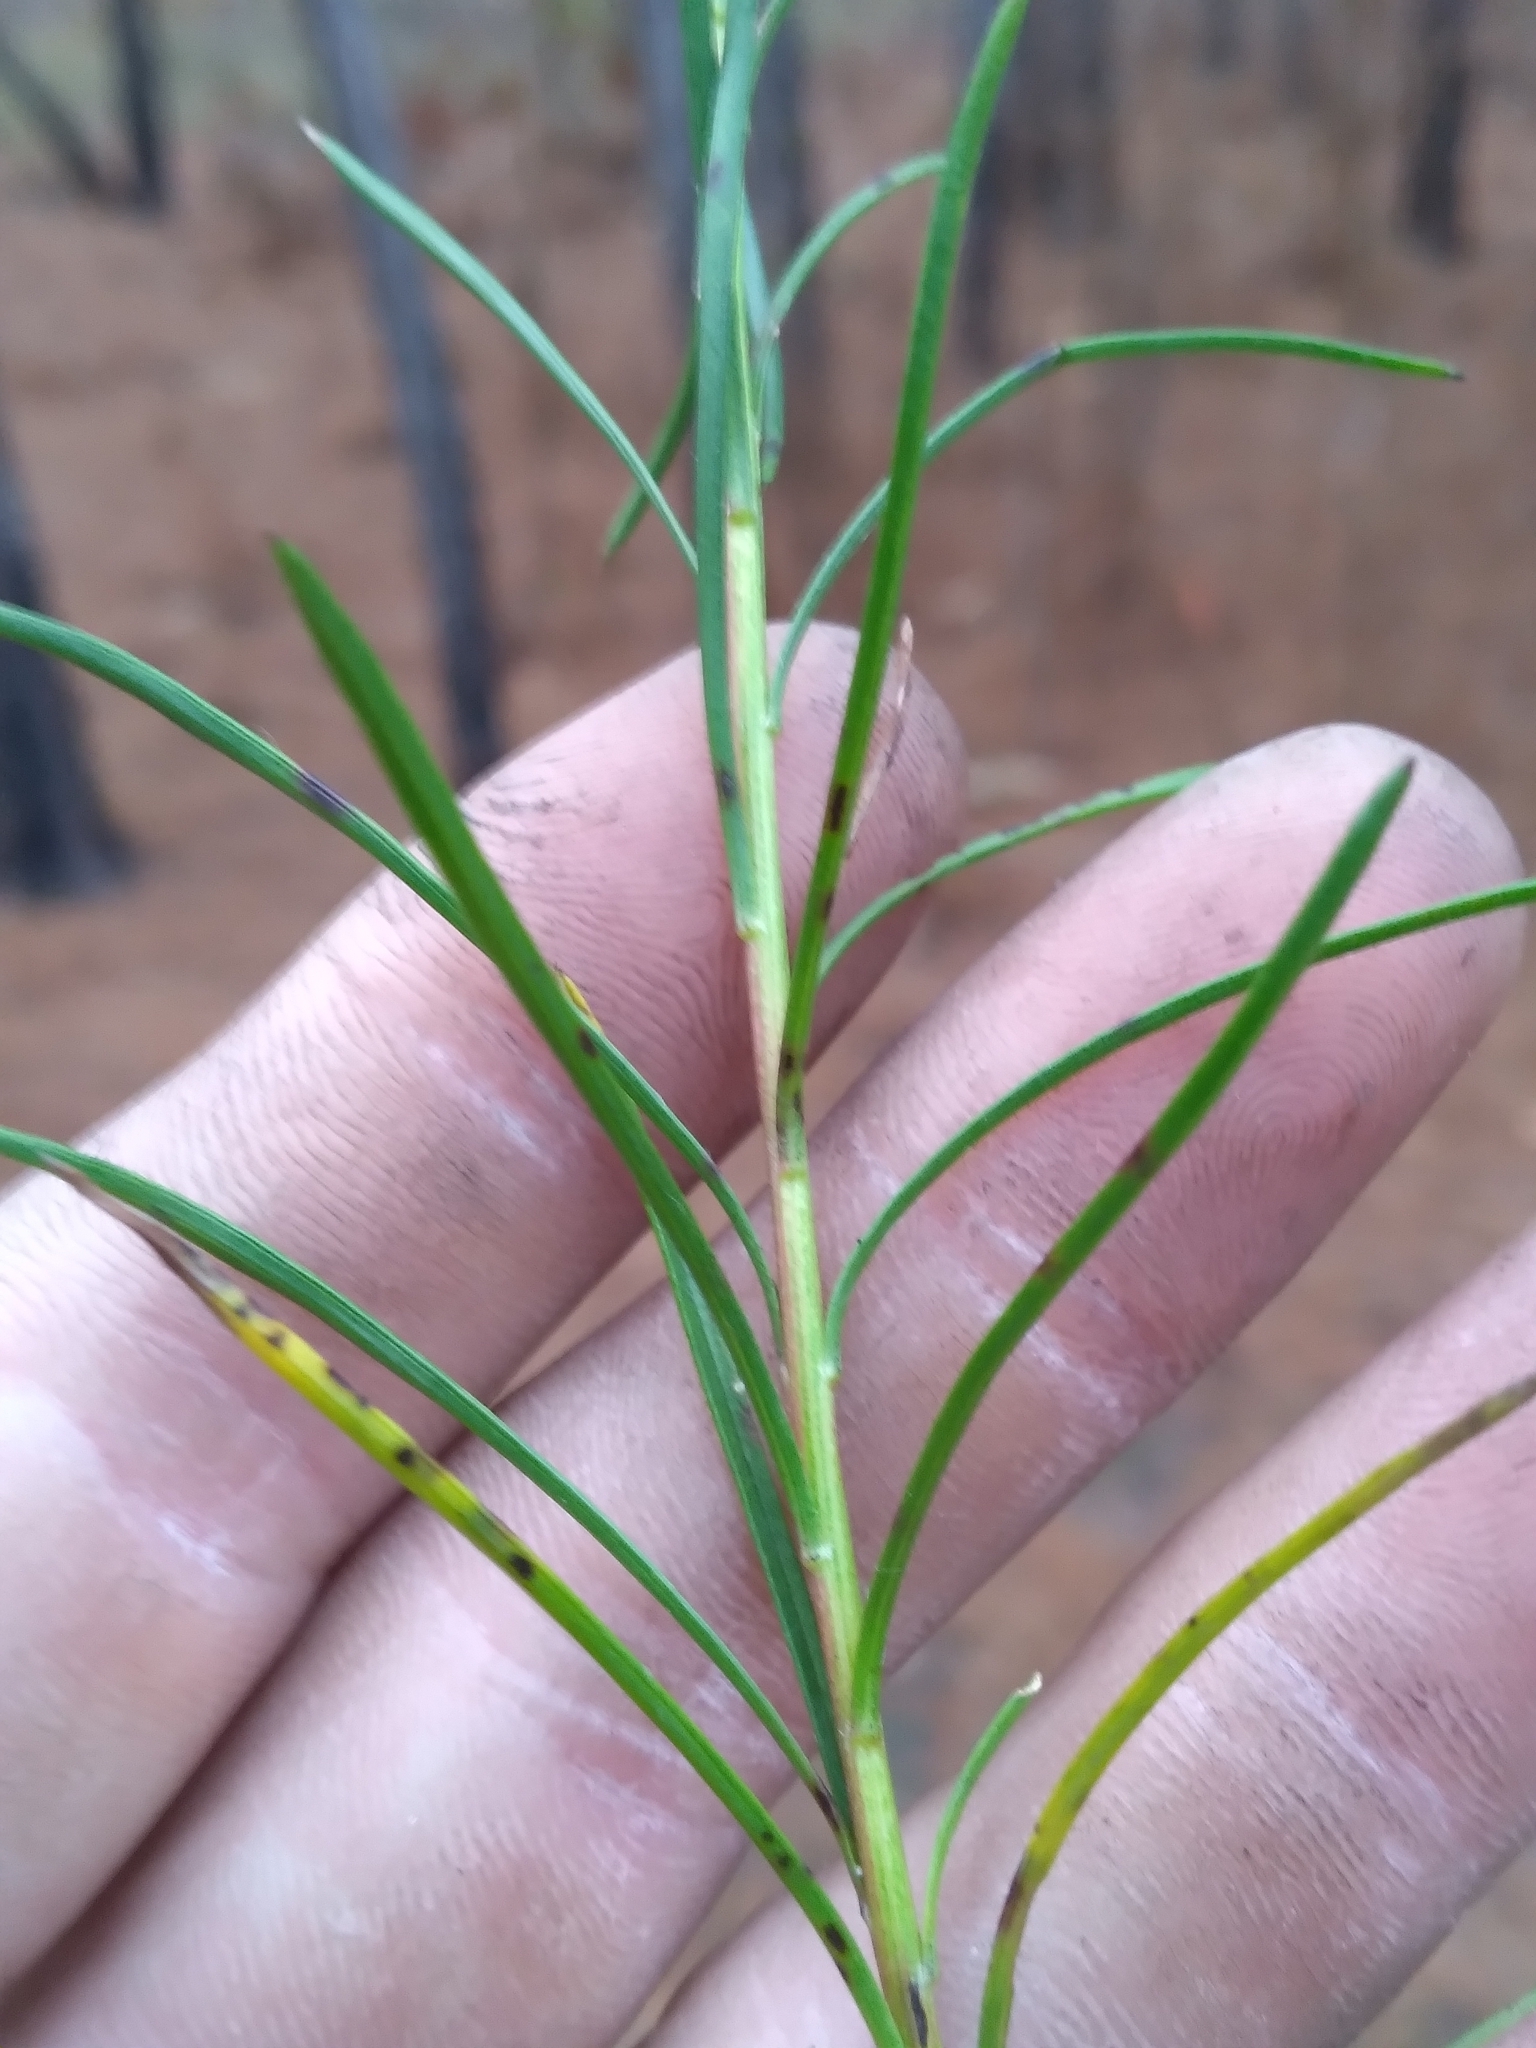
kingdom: Plantae
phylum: Tracheophyta
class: Magnoliopsida
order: Asterales
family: Asteraceae
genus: Pityopsis
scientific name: Pityopsis pinifolia
